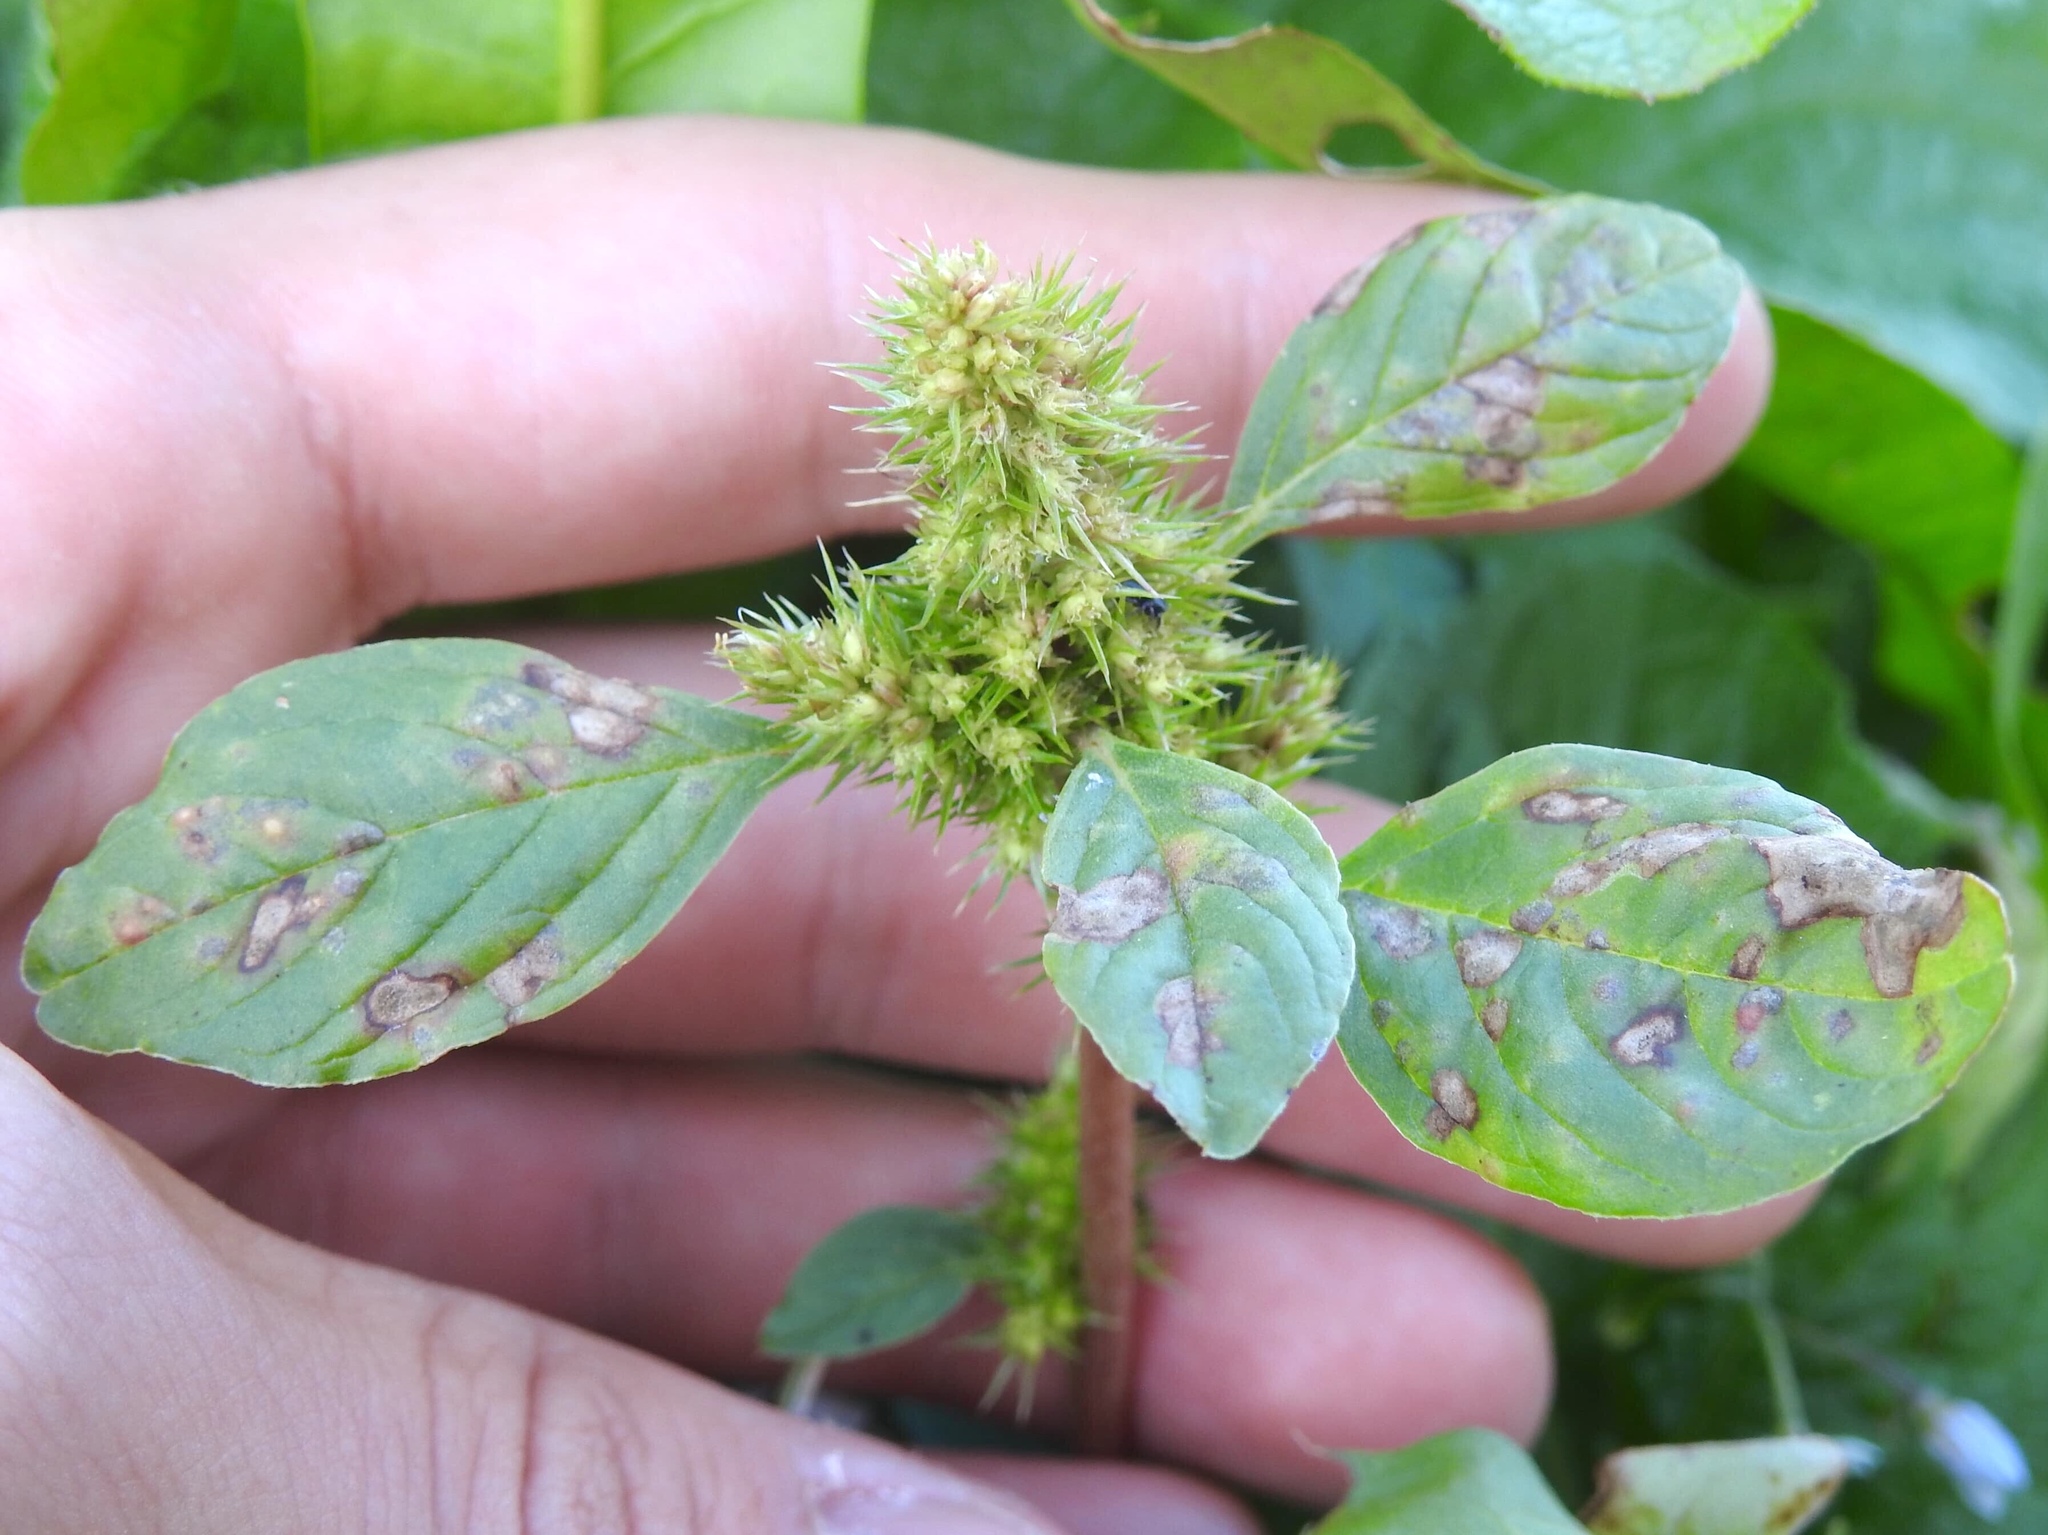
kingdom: Plantae
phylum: Tracheophyta
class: Magnoliopsida
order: Caryophyllales
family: Amaranthaceae
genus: Amaranthus
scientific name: Amaranthus retroflexus
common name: Redroot amaranth
